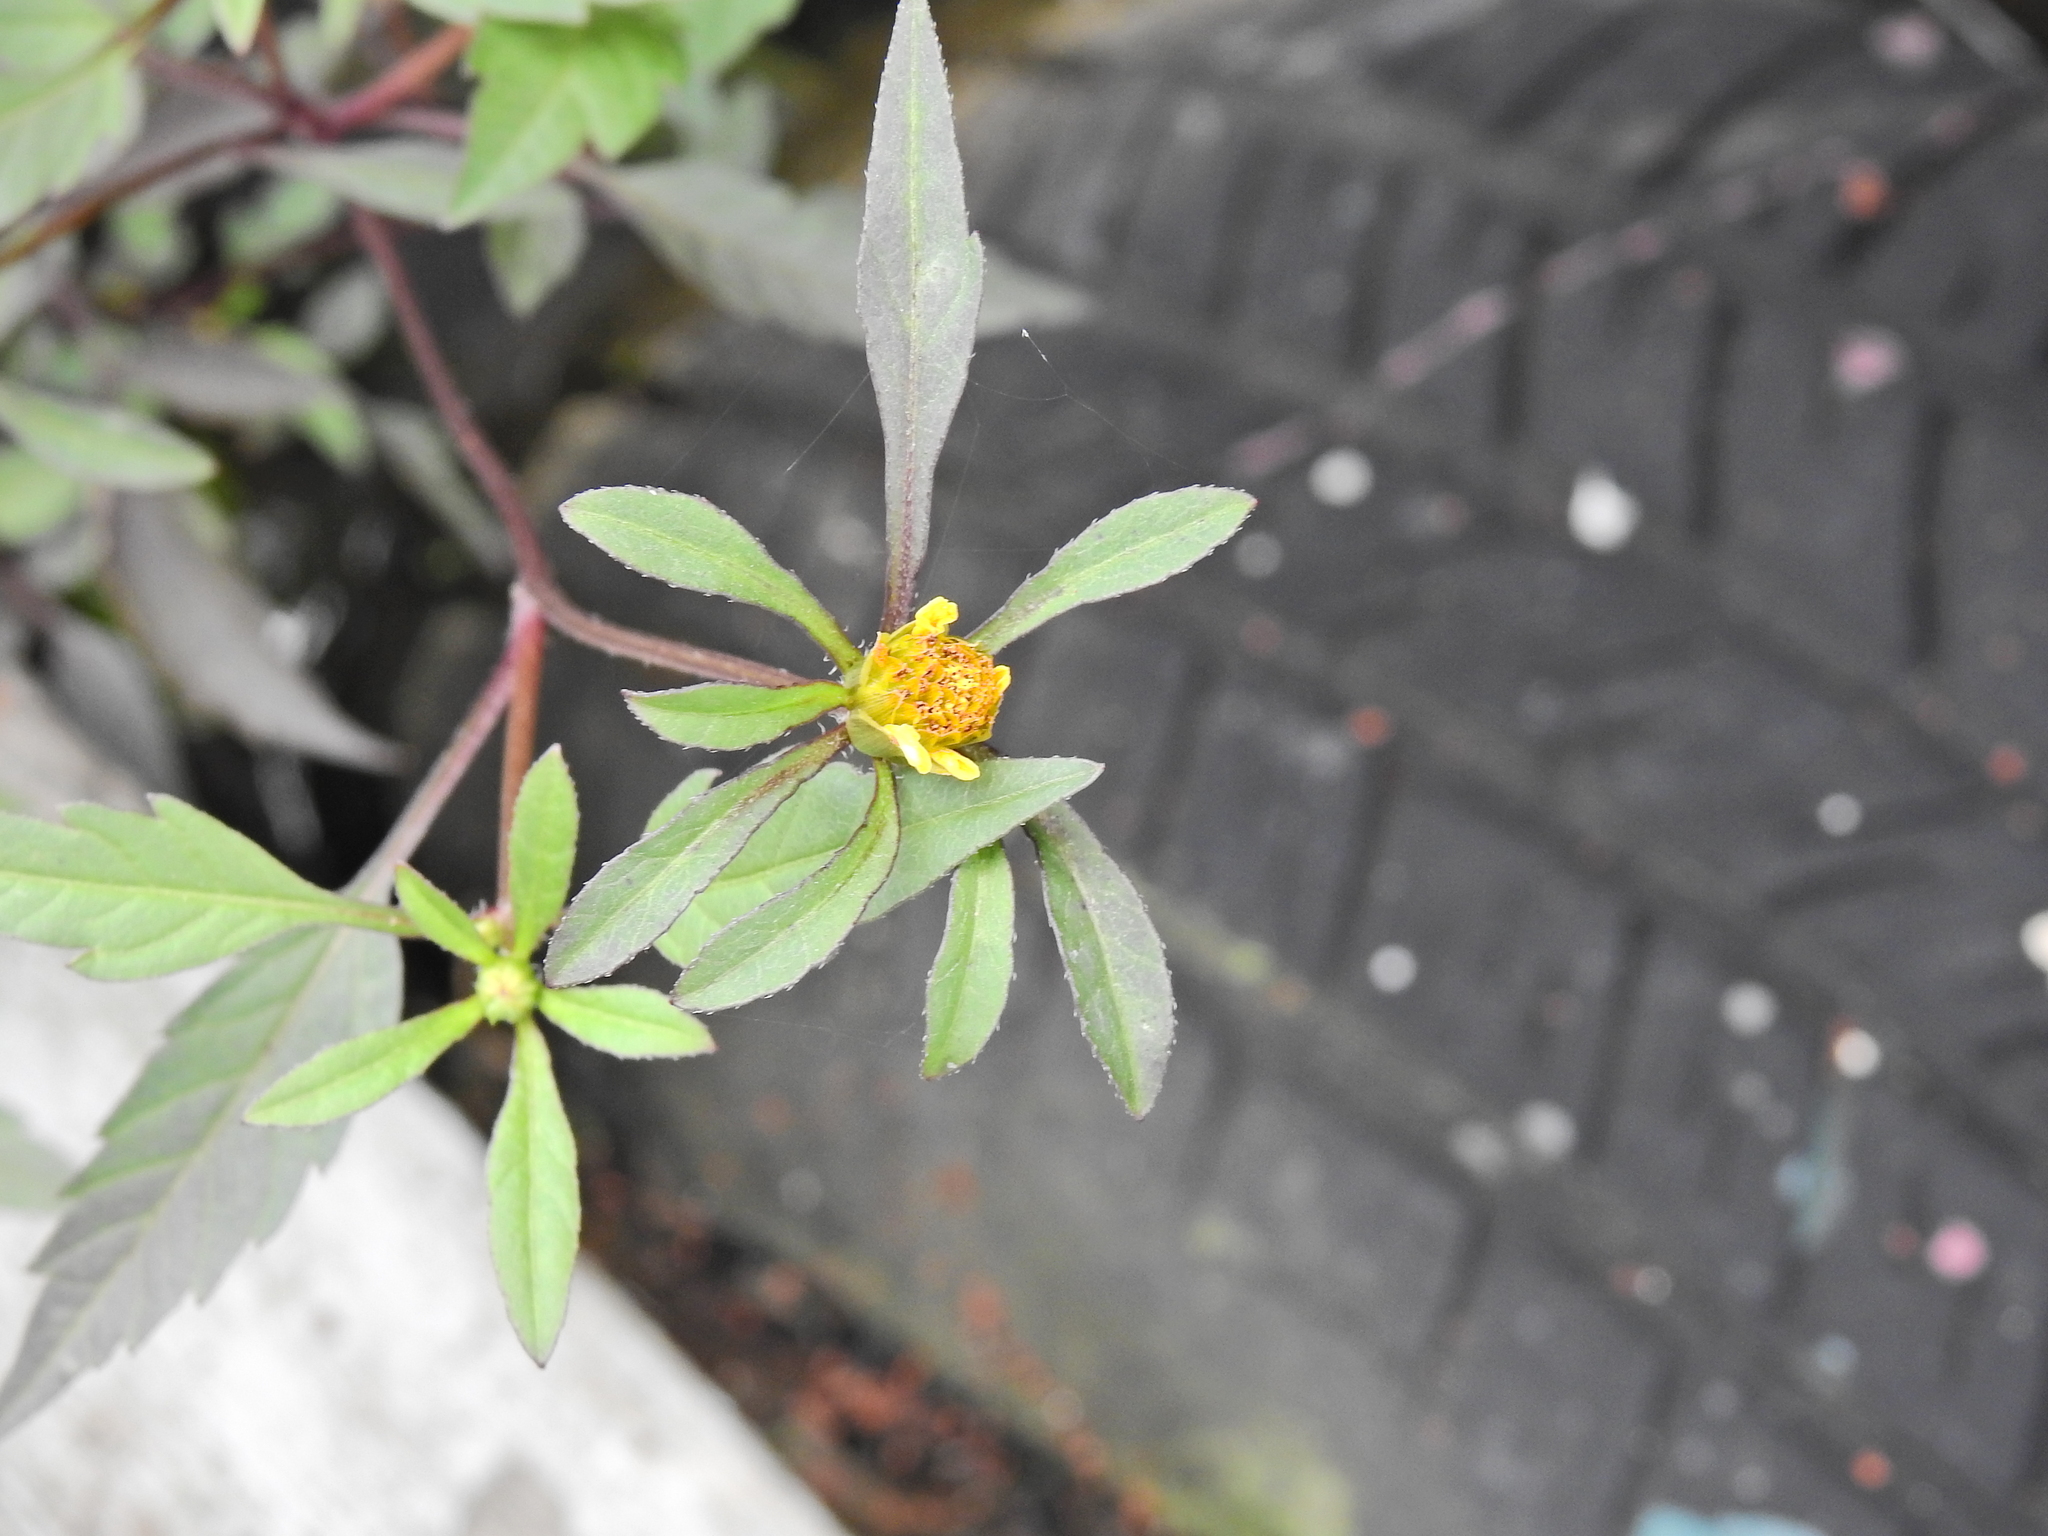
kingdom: Plantae
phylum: Tracheophyta
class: Magnoliopsida
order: Asterales
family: Asteraceae
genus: Bidens
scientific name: Bidens tripartita
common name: Trifid bur-marigold
